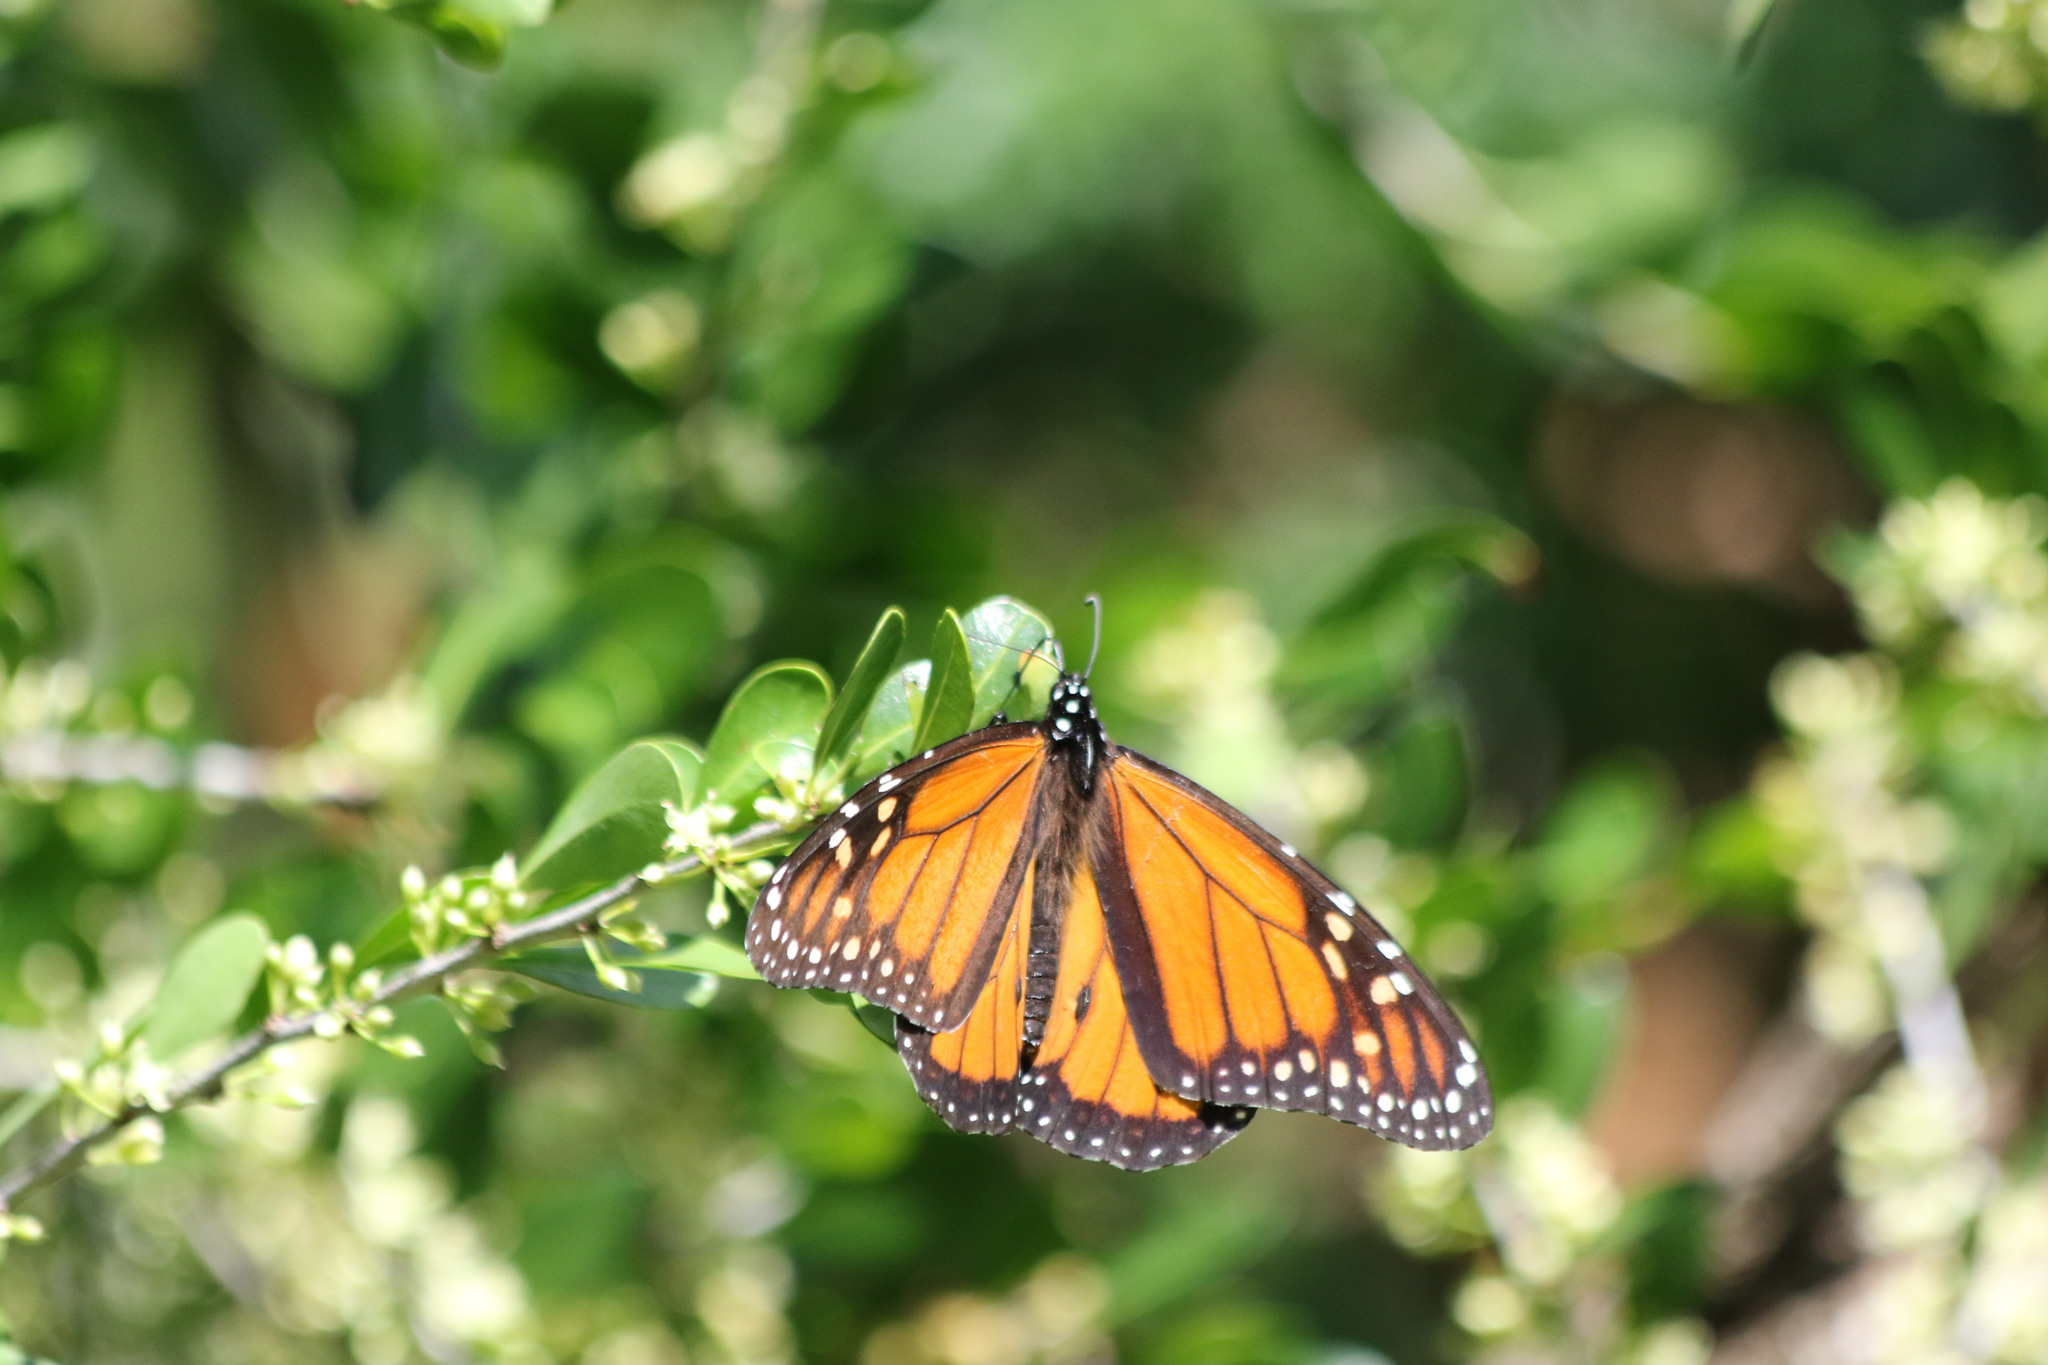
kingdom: Animalia
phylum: Arthropoda
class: Insecta
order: Lepidoptera
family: Nymphalidae
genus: Danaus
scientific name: Danaus plexippus
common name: Monarch
